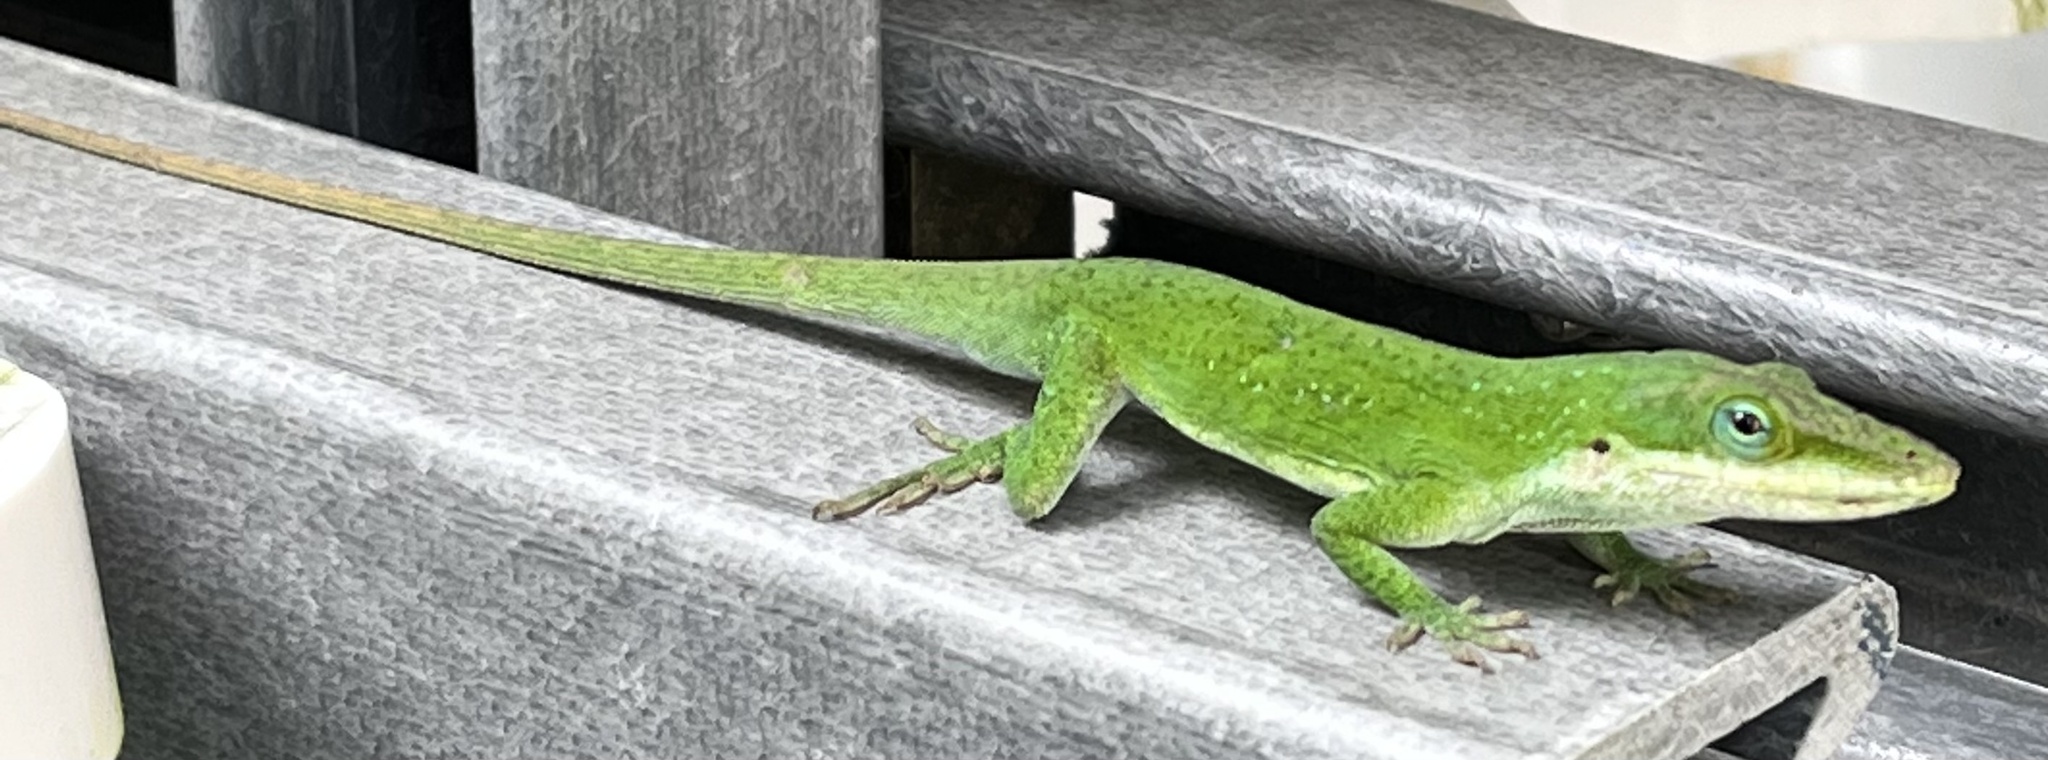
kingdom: Animalia
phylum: Chordata
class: Squamata
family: Dactyloidae
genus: Anolis
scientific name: Anolis carolinensis
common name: Green anole
